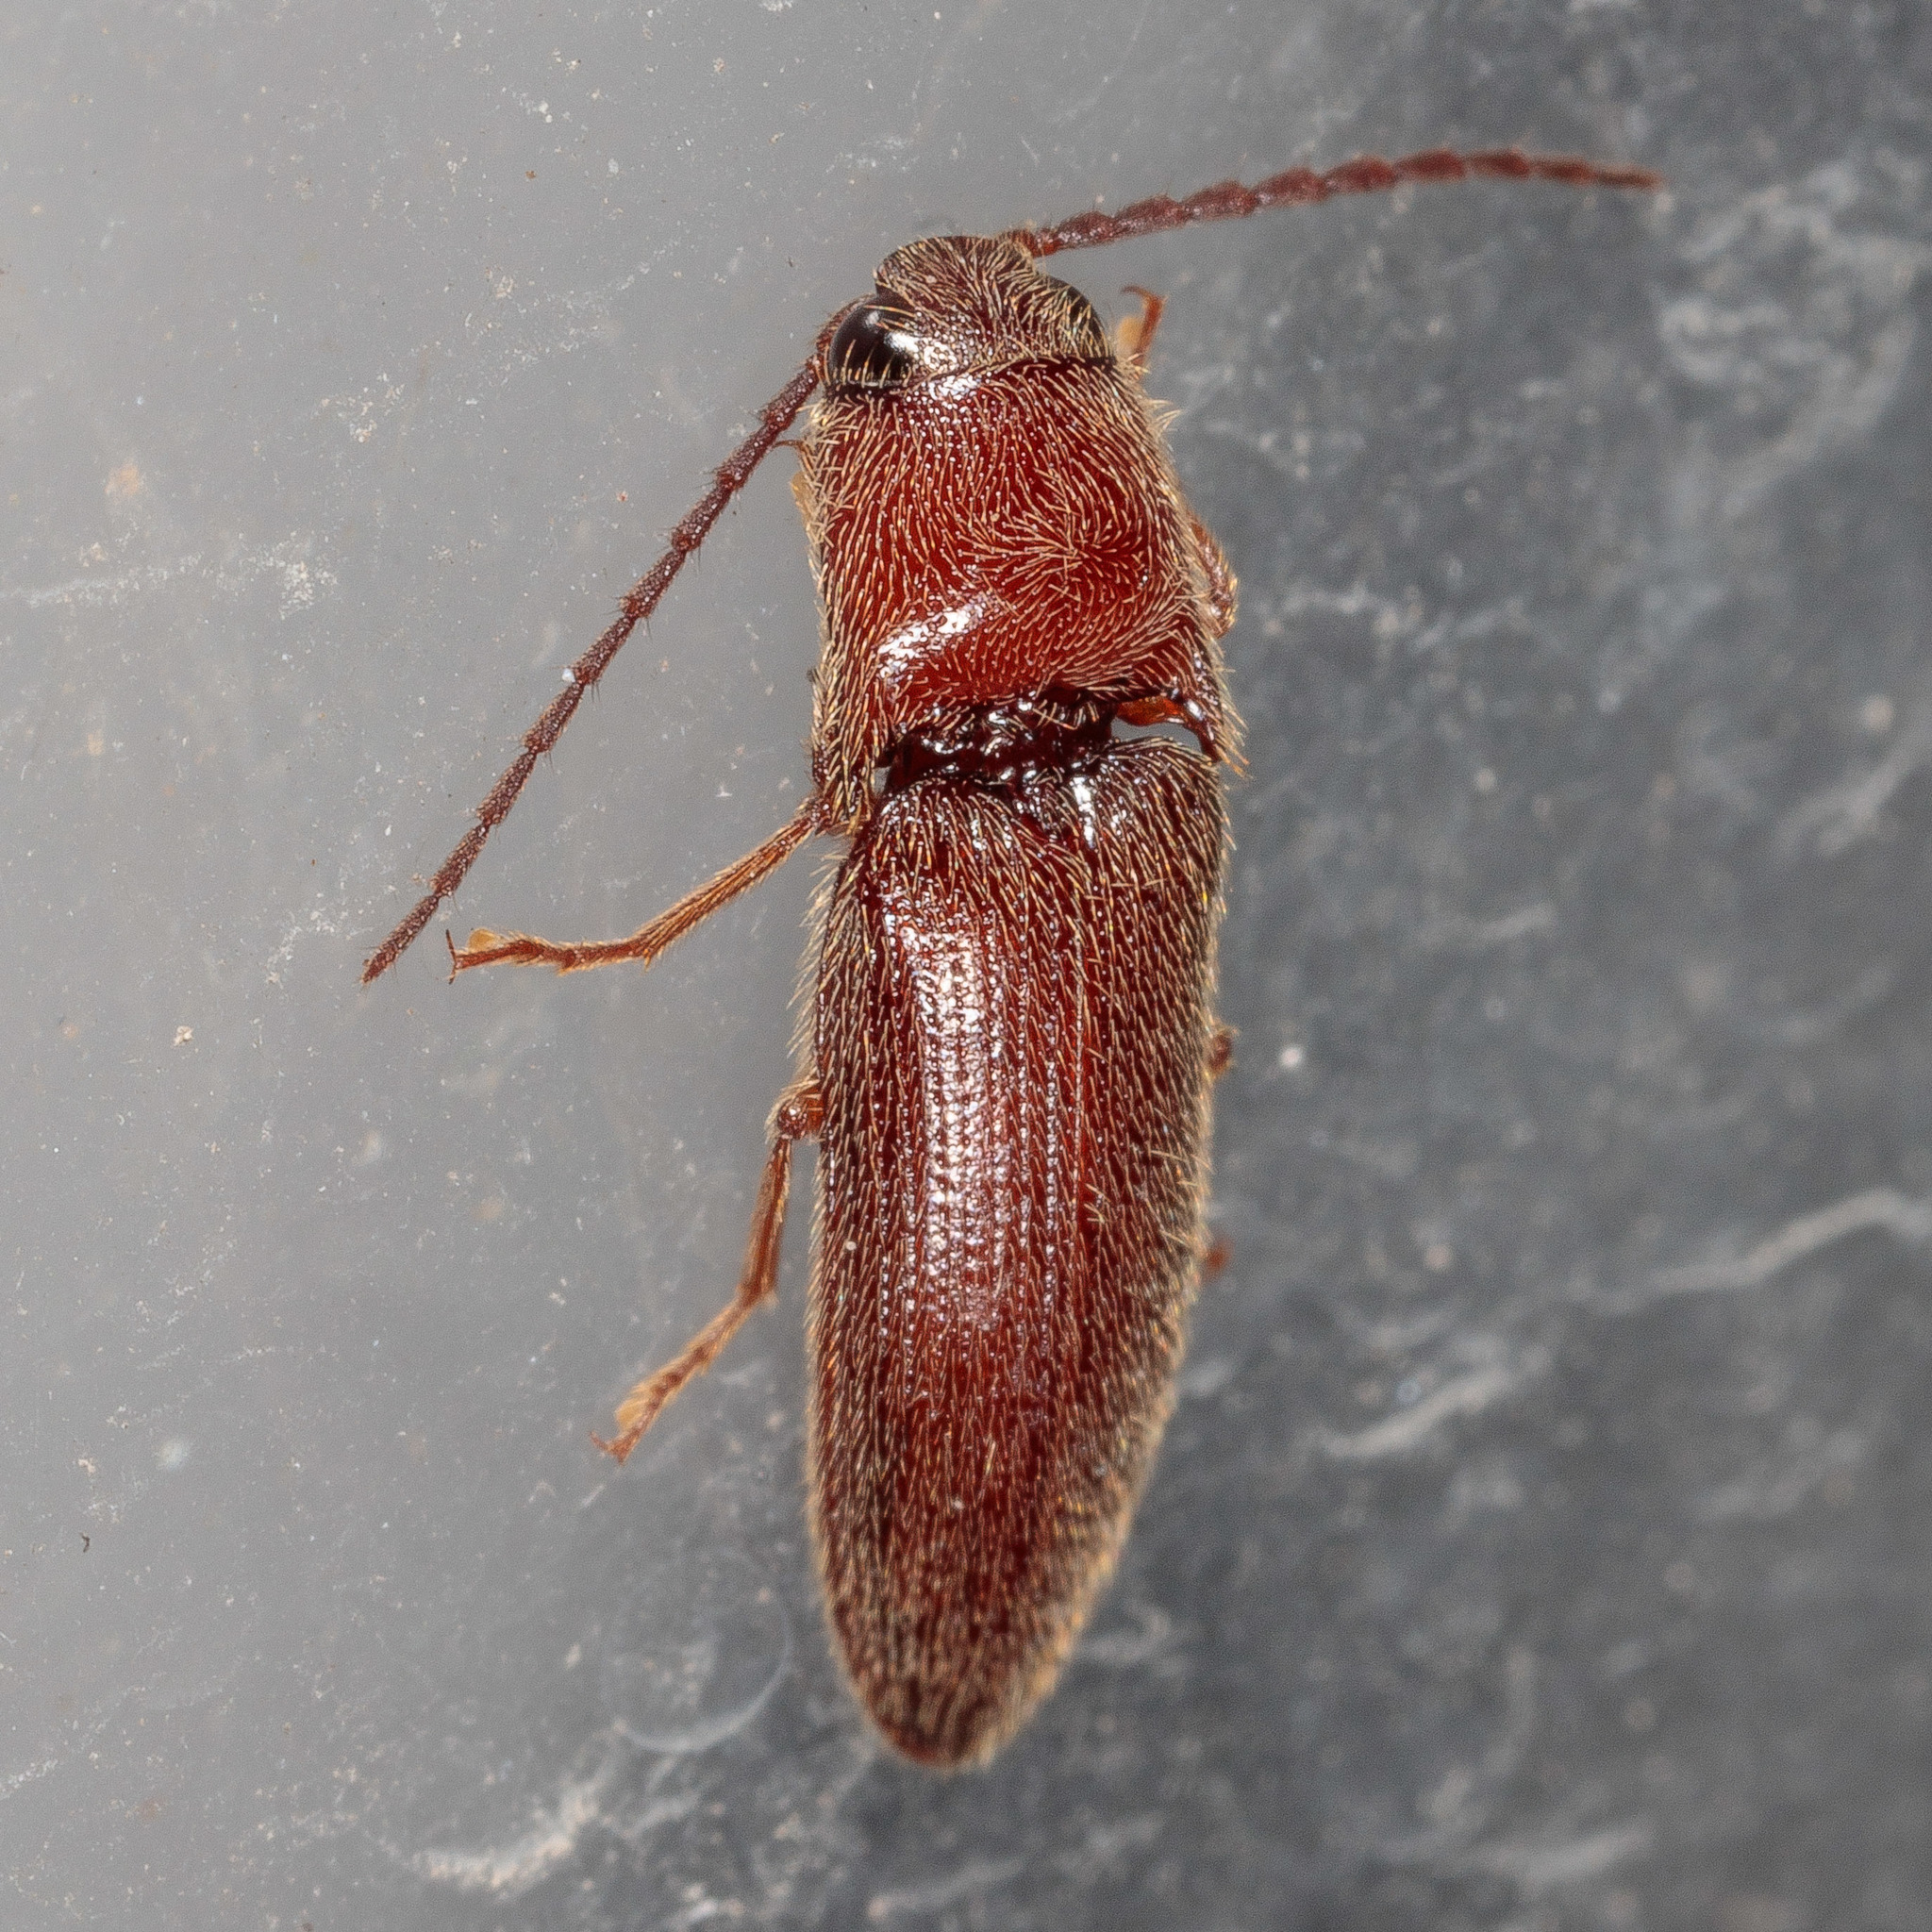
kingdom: Animalia
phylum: Arthropoda
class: Insecta
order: Coleoptera
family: Elateridae
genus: Dipropus
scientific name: Dipropus
